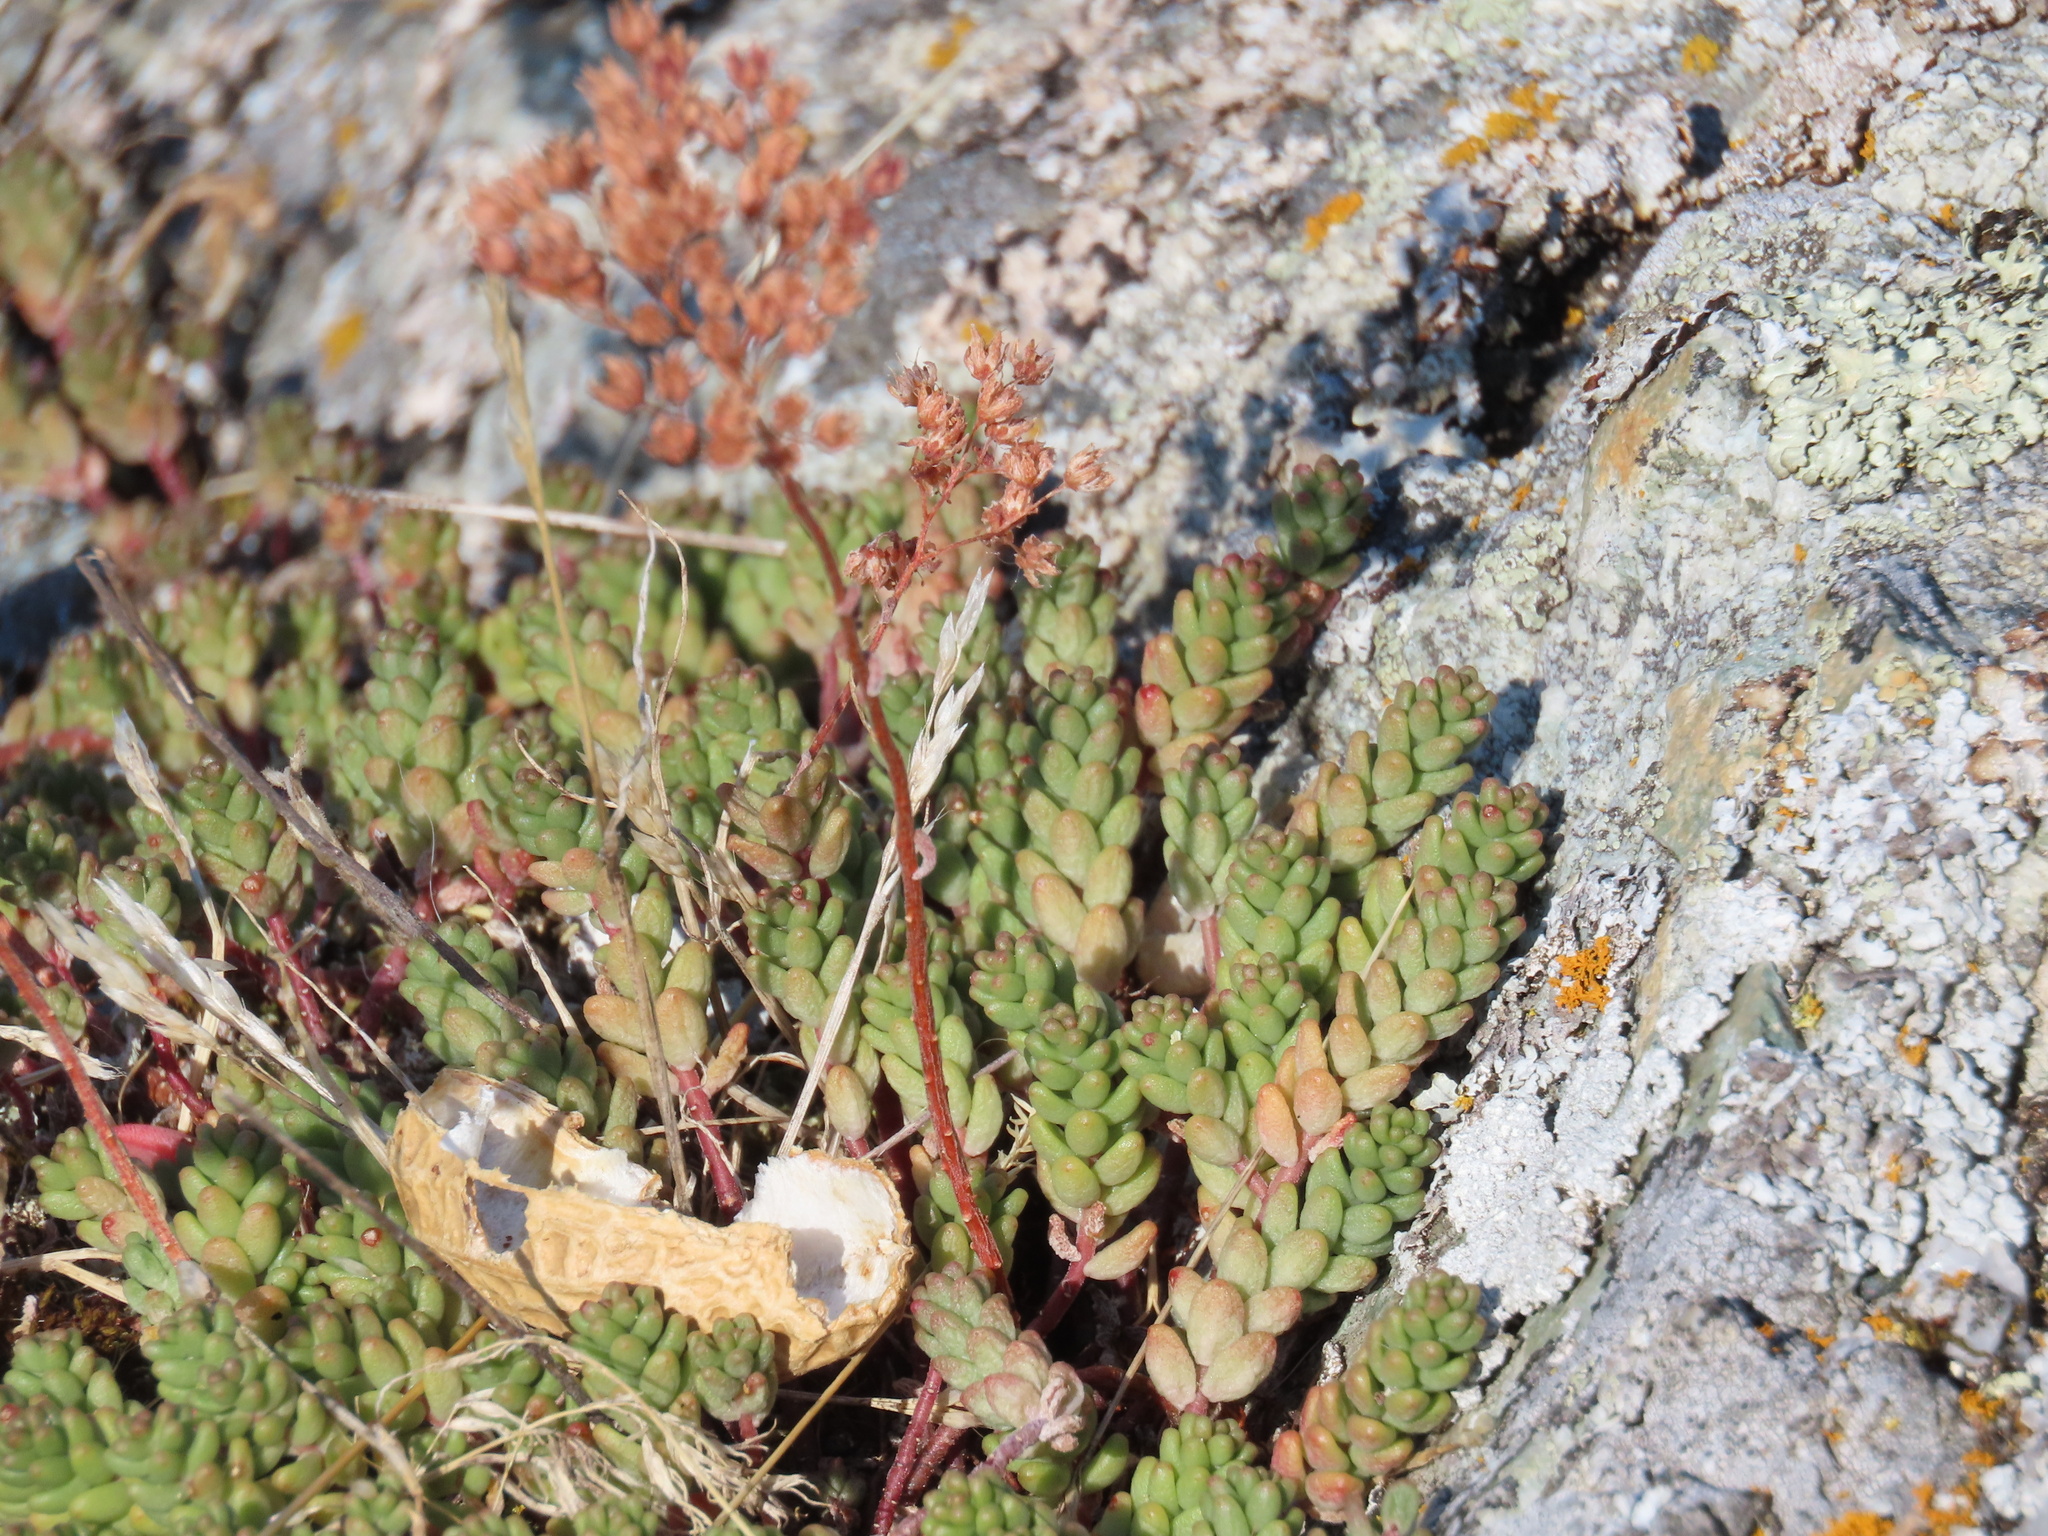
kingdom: Plantae
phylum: Tracheophyta
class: Magnoliopsida
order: Saxifragales
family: Crassulaceae
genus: Sedum
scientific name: Sedum album
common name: White stonecrop
